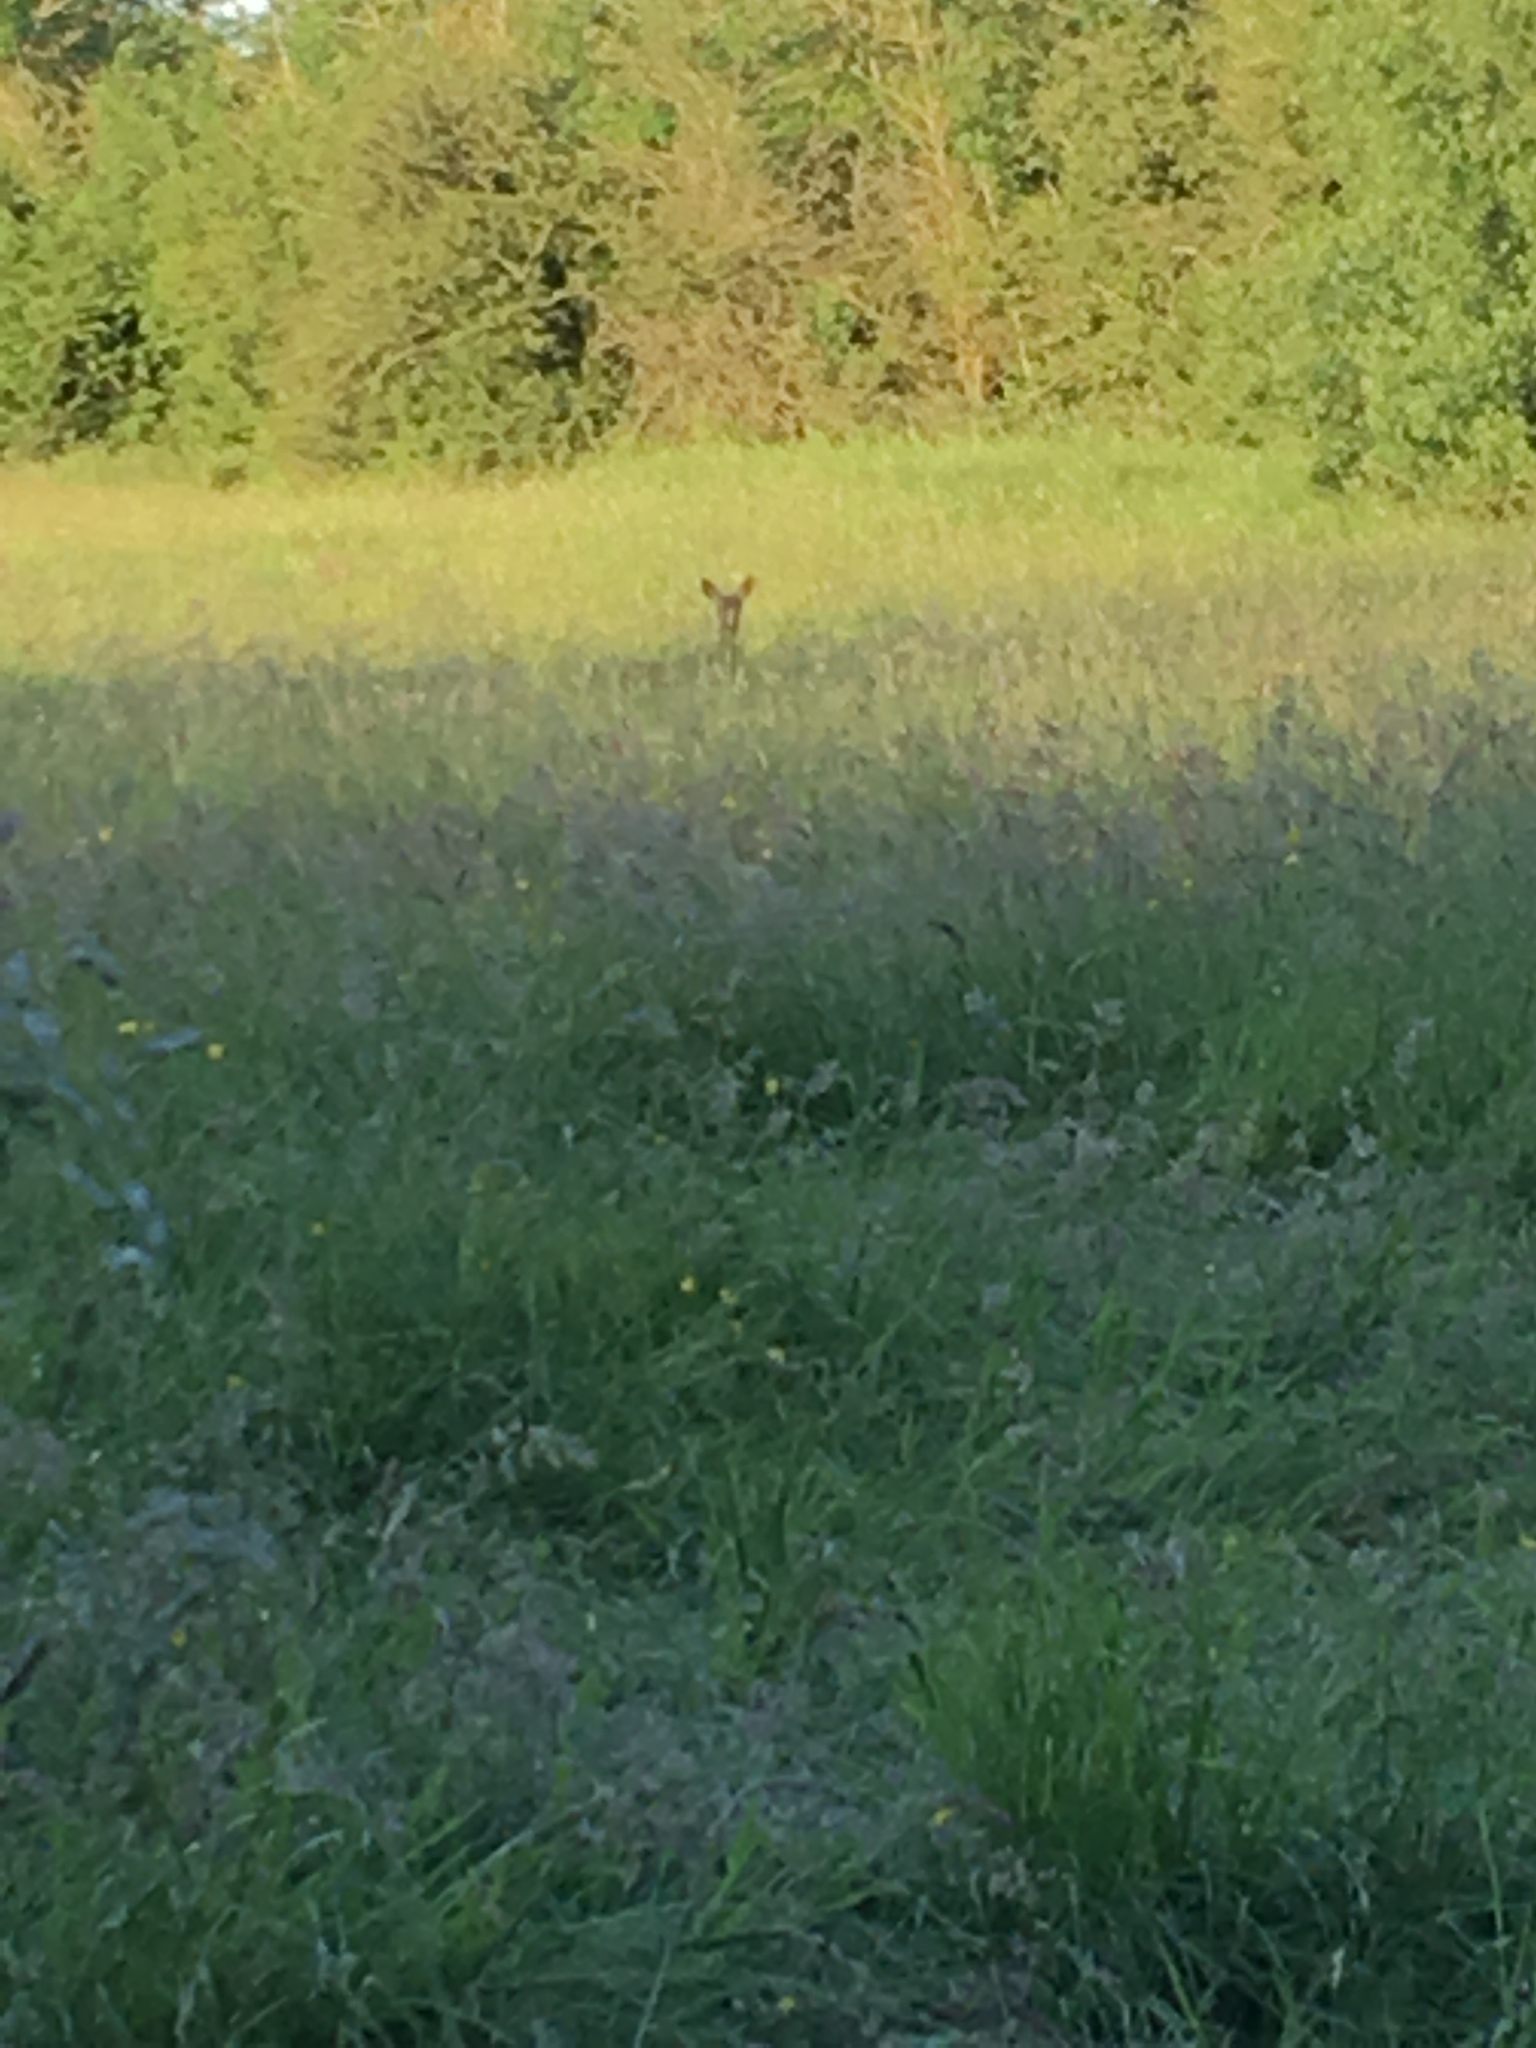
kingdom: Animalia
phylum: Chordata
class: Mammalia
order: Artiodactyla
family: Cervidae
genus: Capreolus
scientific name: Capreolus capreolus
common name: Western roe deer
